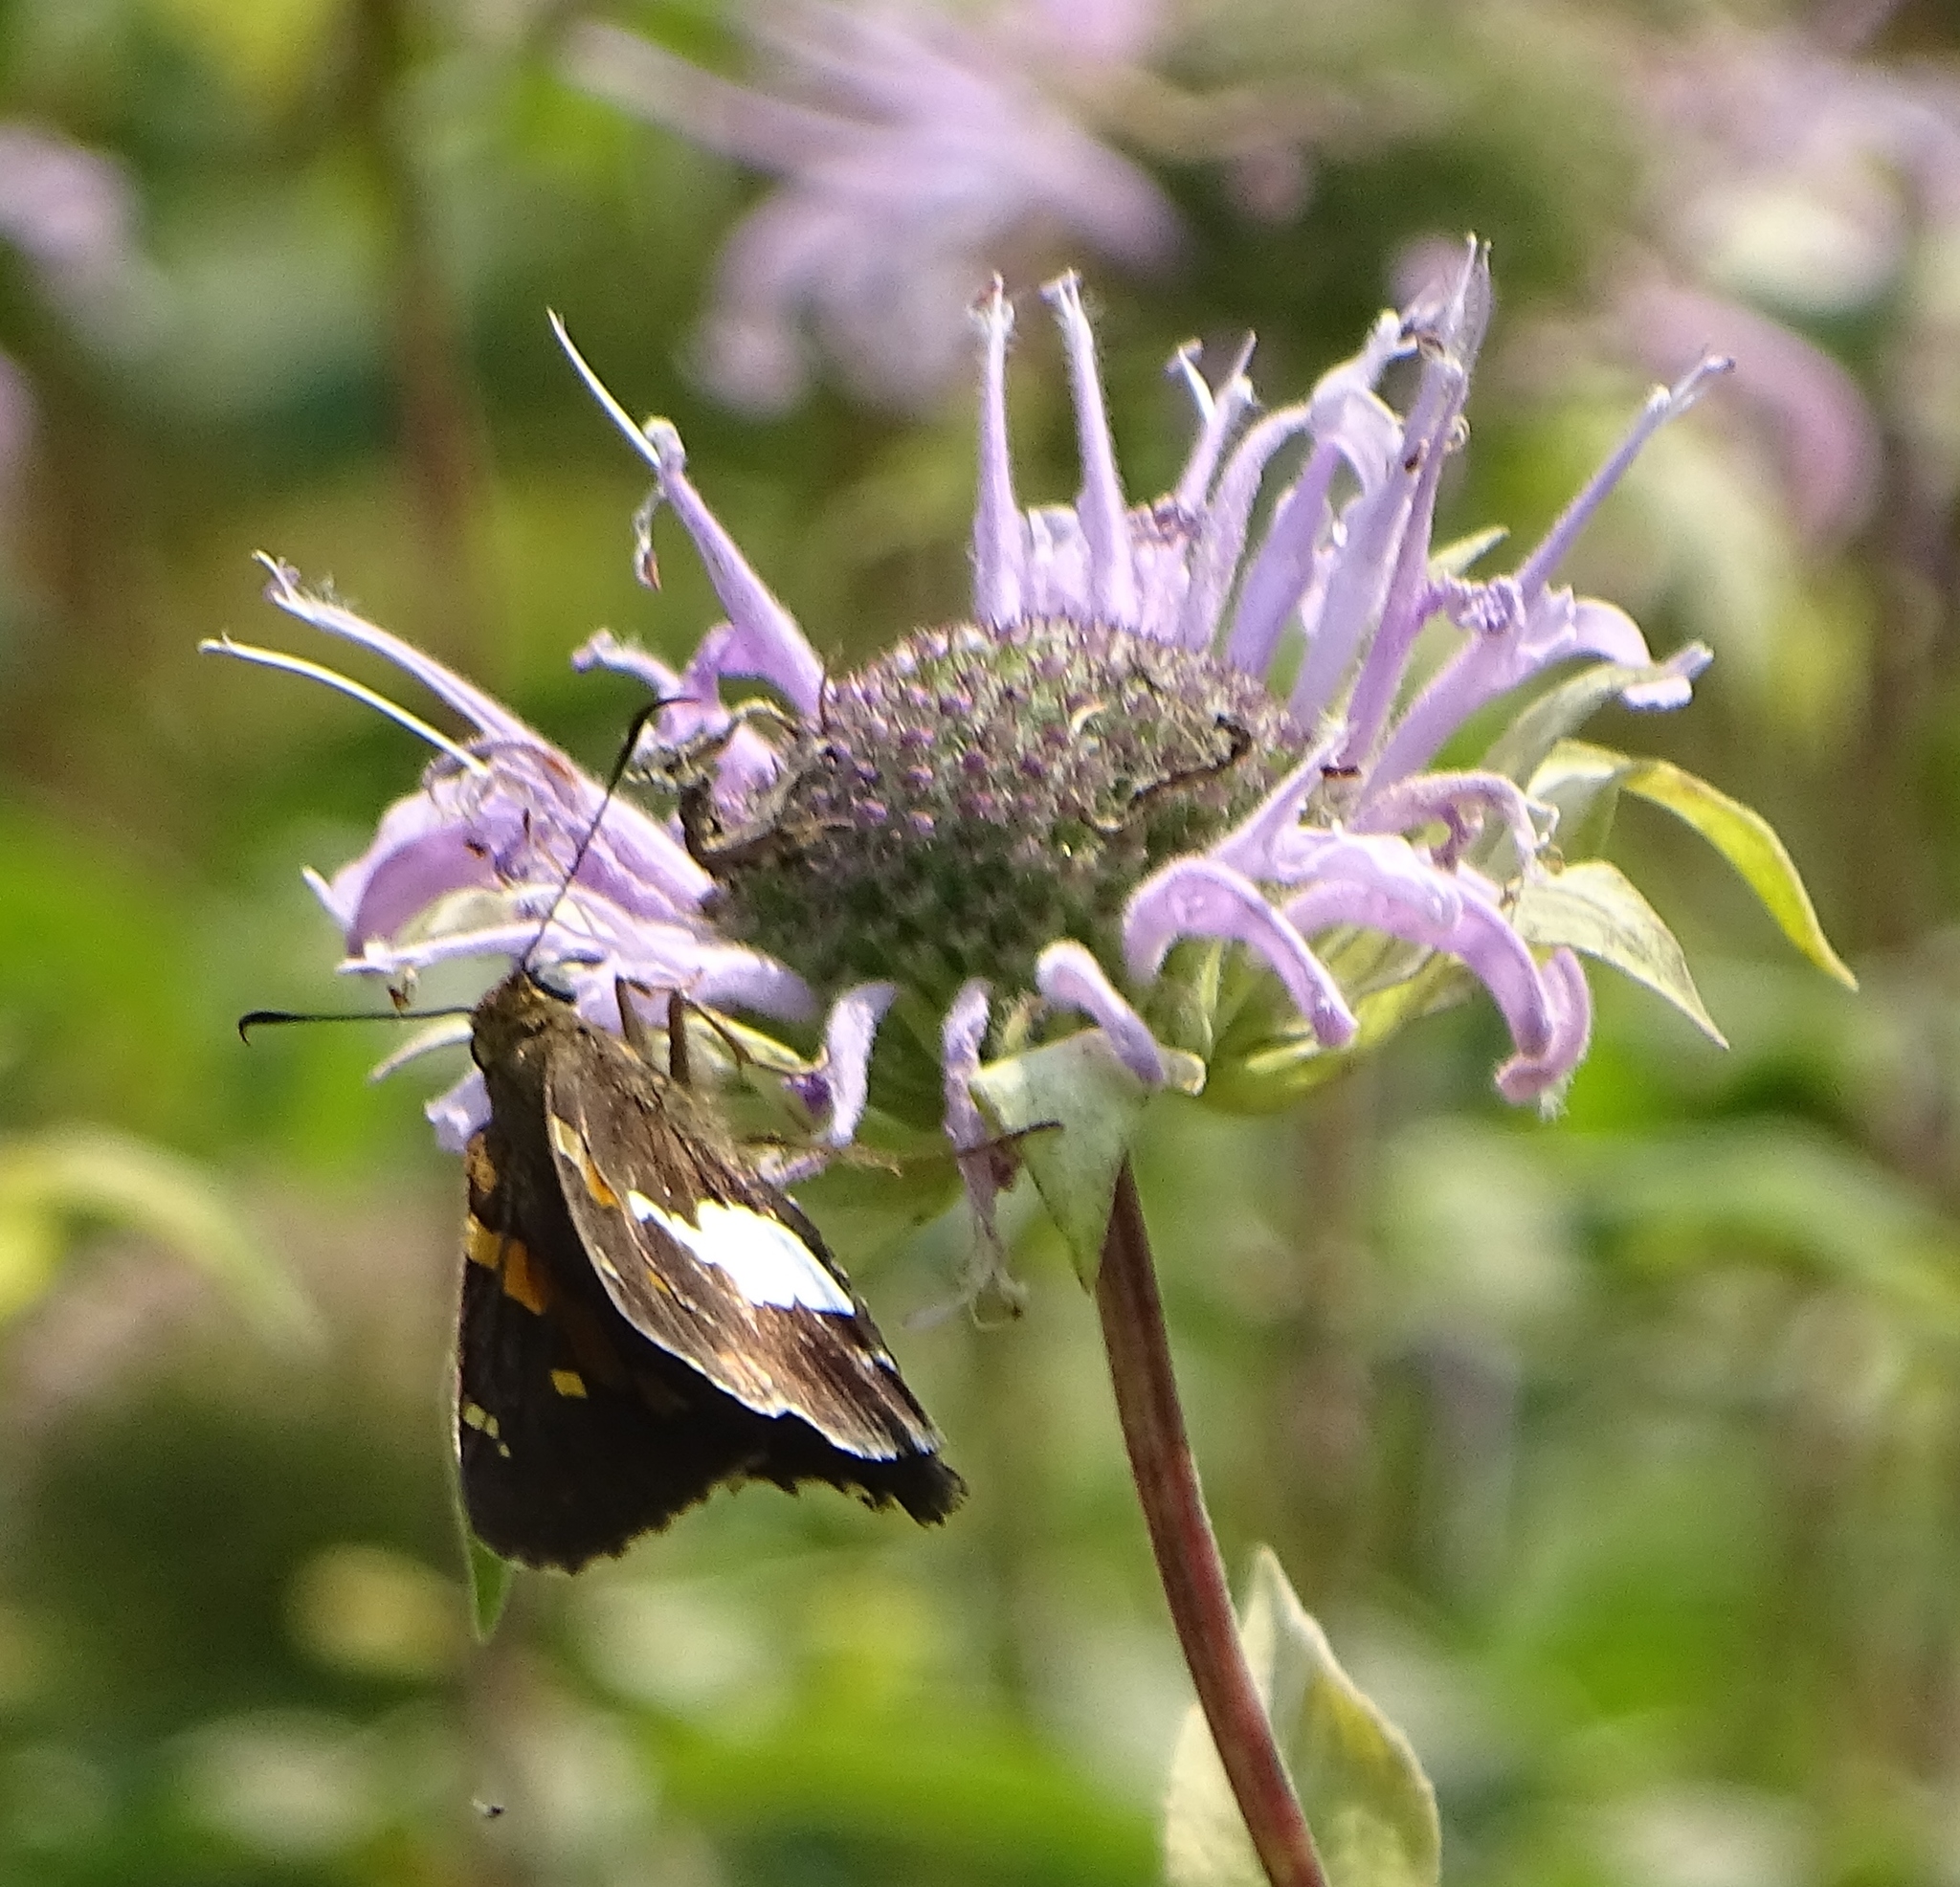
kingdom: Animalia
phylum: Arthropoda
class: Insecta
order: Lepidoptera
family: Hesperiidae
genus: Epargyreus
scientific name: Epargyreus clarus
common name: Silver-spotted skipper
